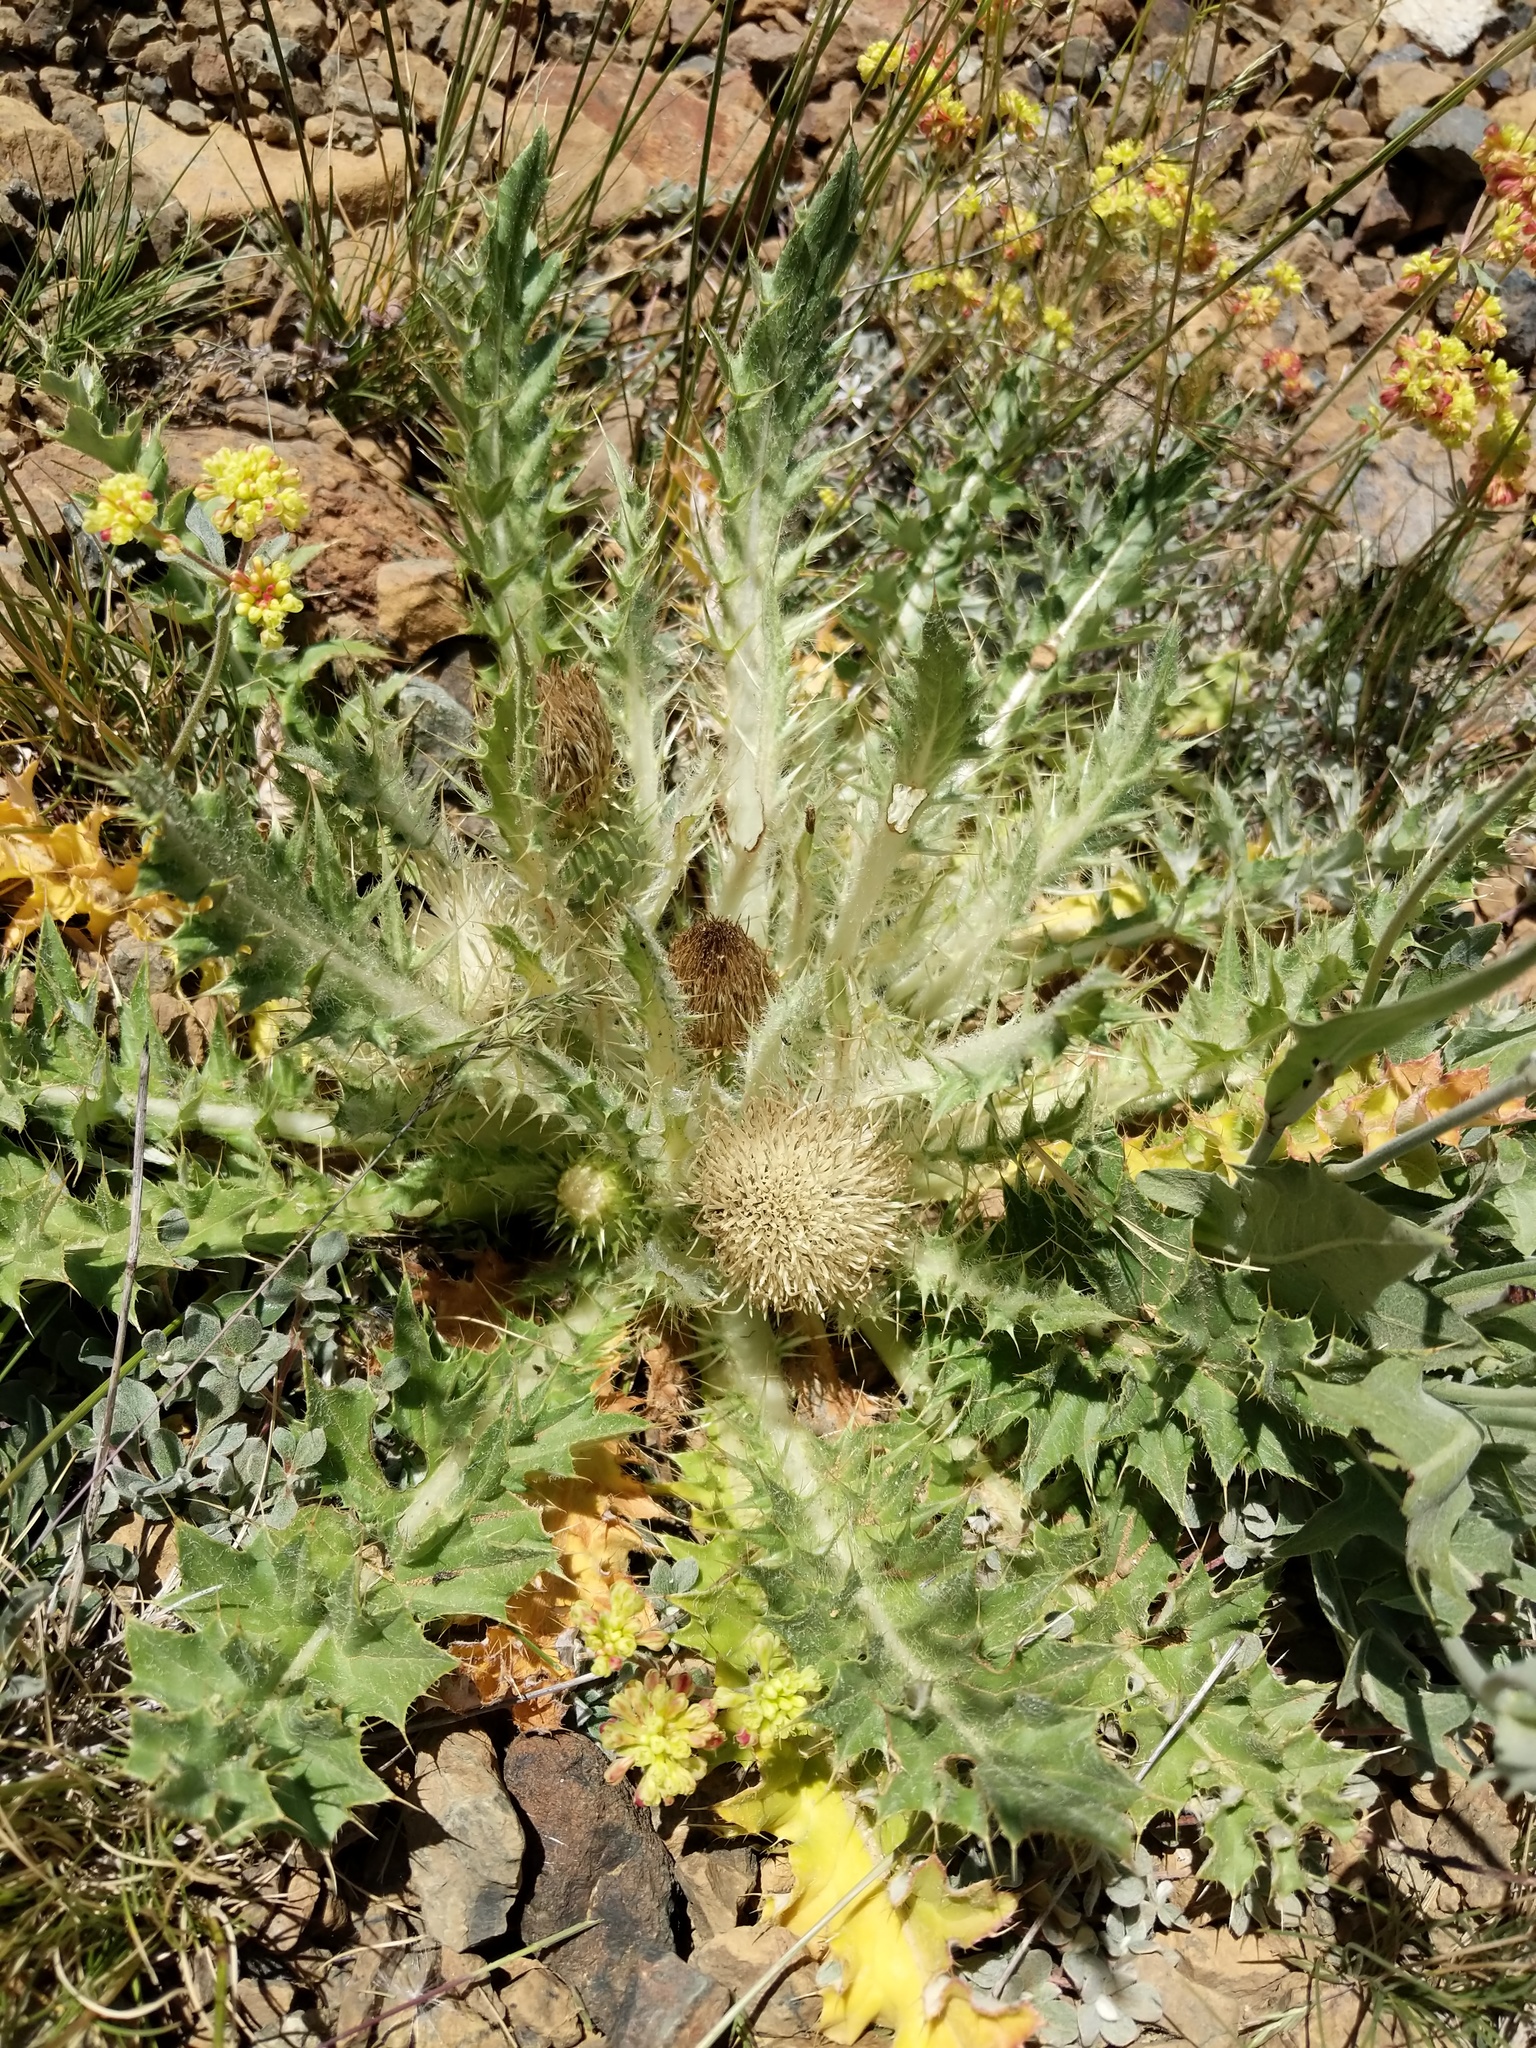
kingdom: Plantae
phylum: Tracheophyta
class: Magnoliopsida
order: Asterales
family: Asteraceae
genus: Cirsium
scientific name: Cirsium scariosum
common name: Meadow thistle
